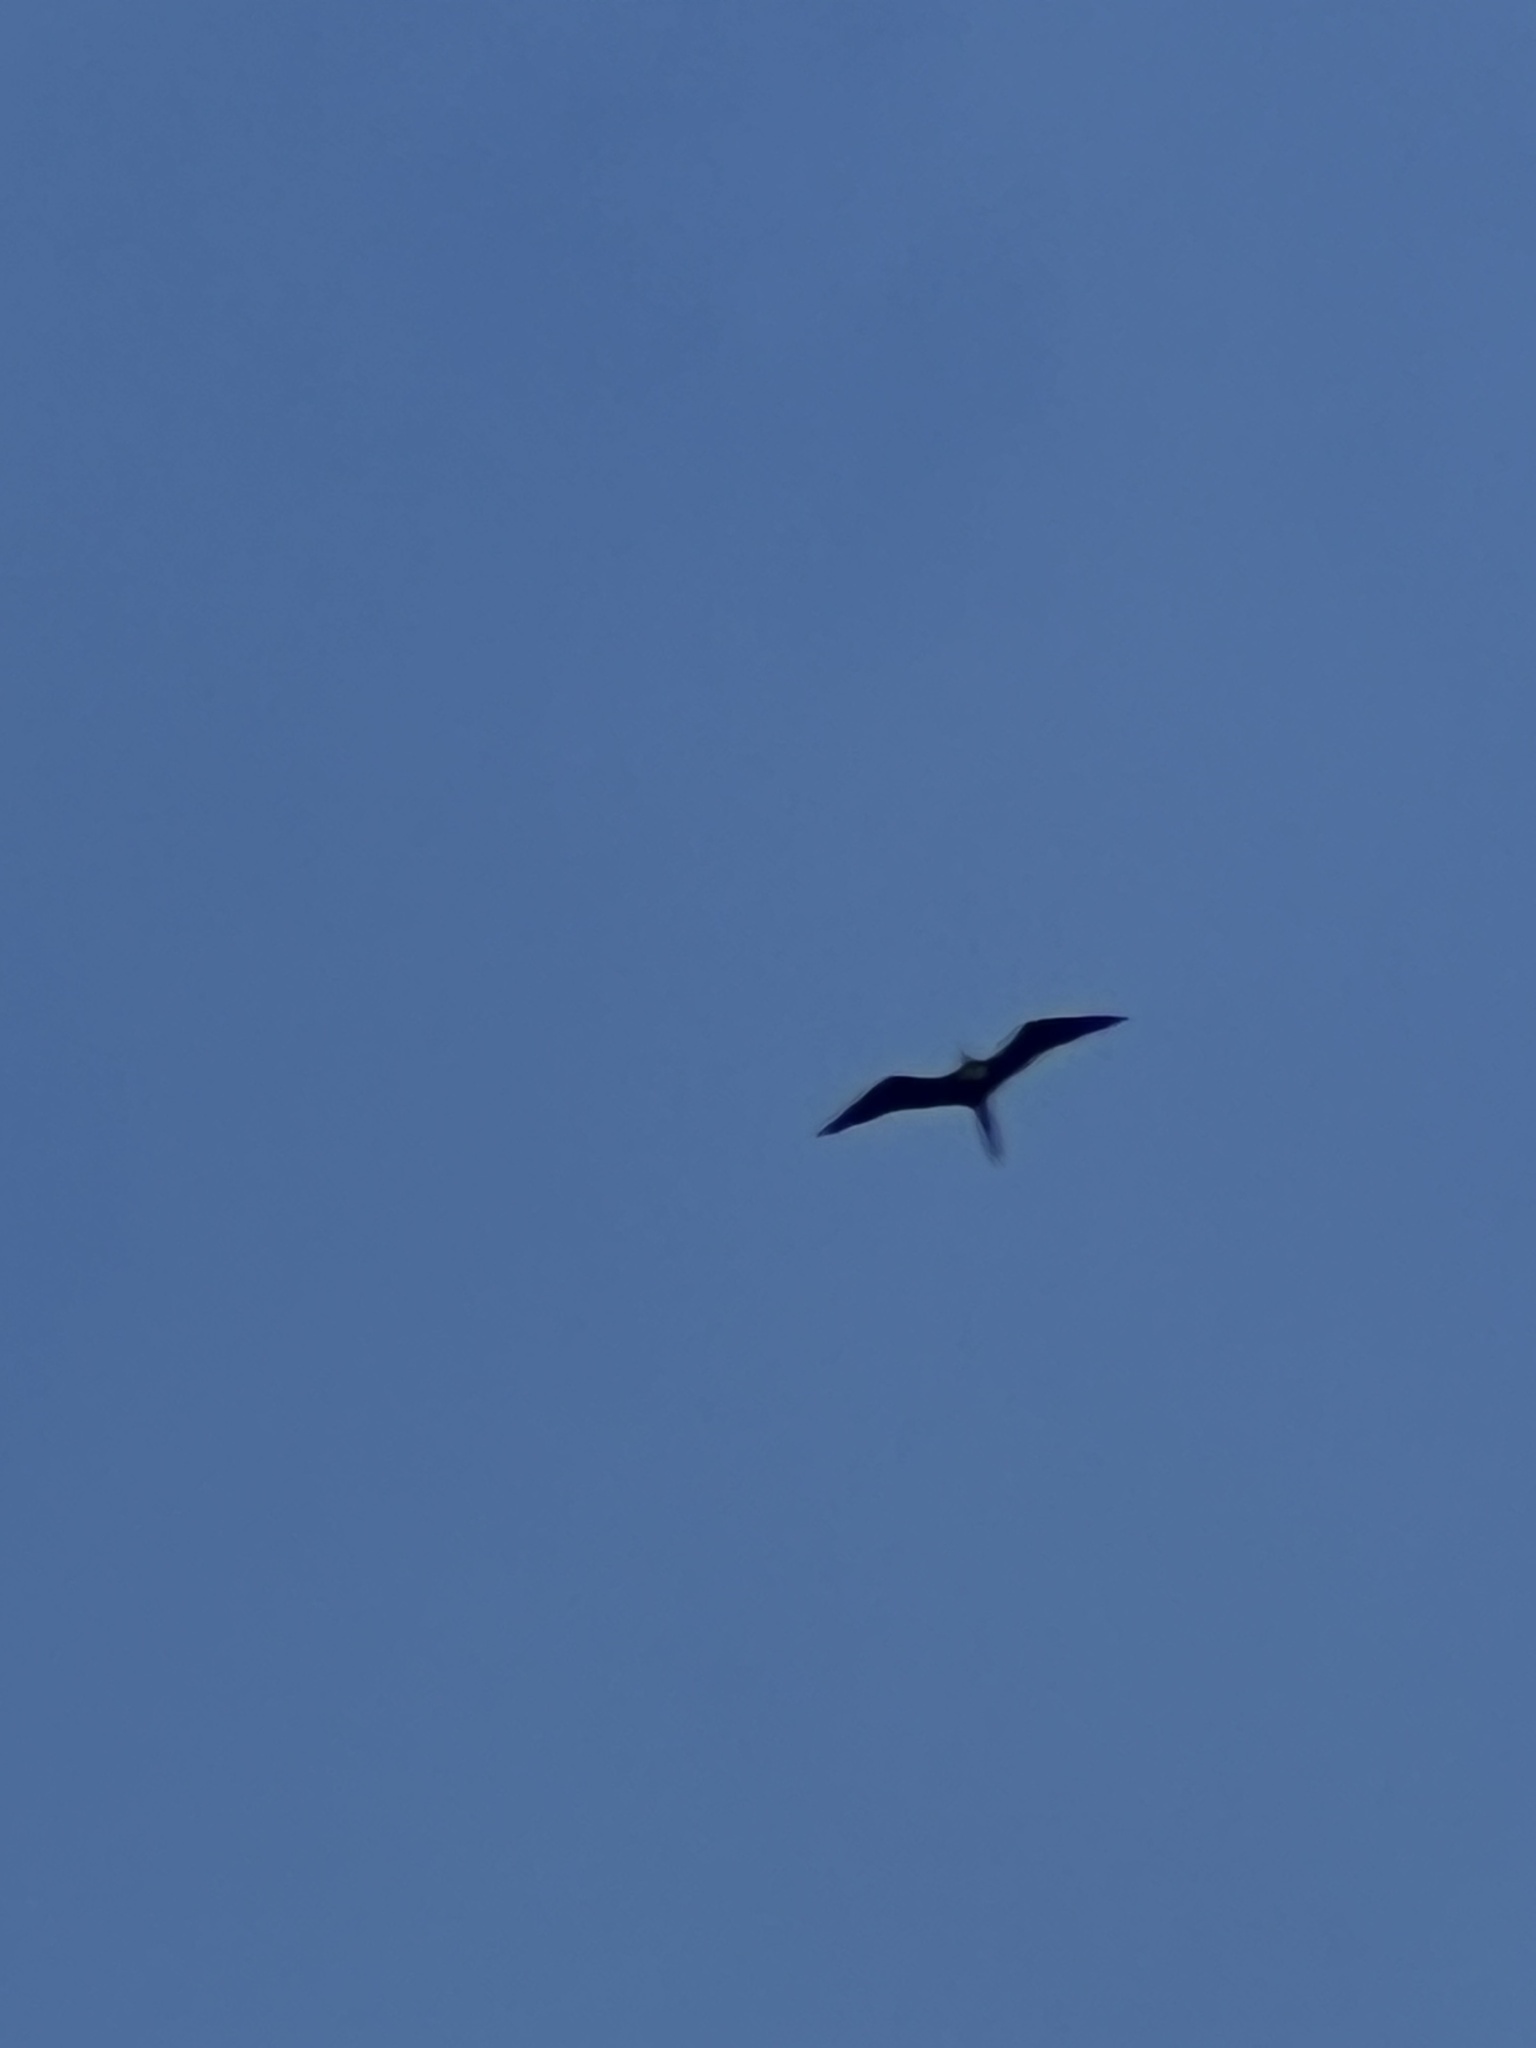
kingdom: Animalia
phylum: Chordata
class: Aves
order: Suliformes
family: Fregatidae
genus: Fregata
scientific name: Fregata magnificens
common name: Magnificent frigatebird
